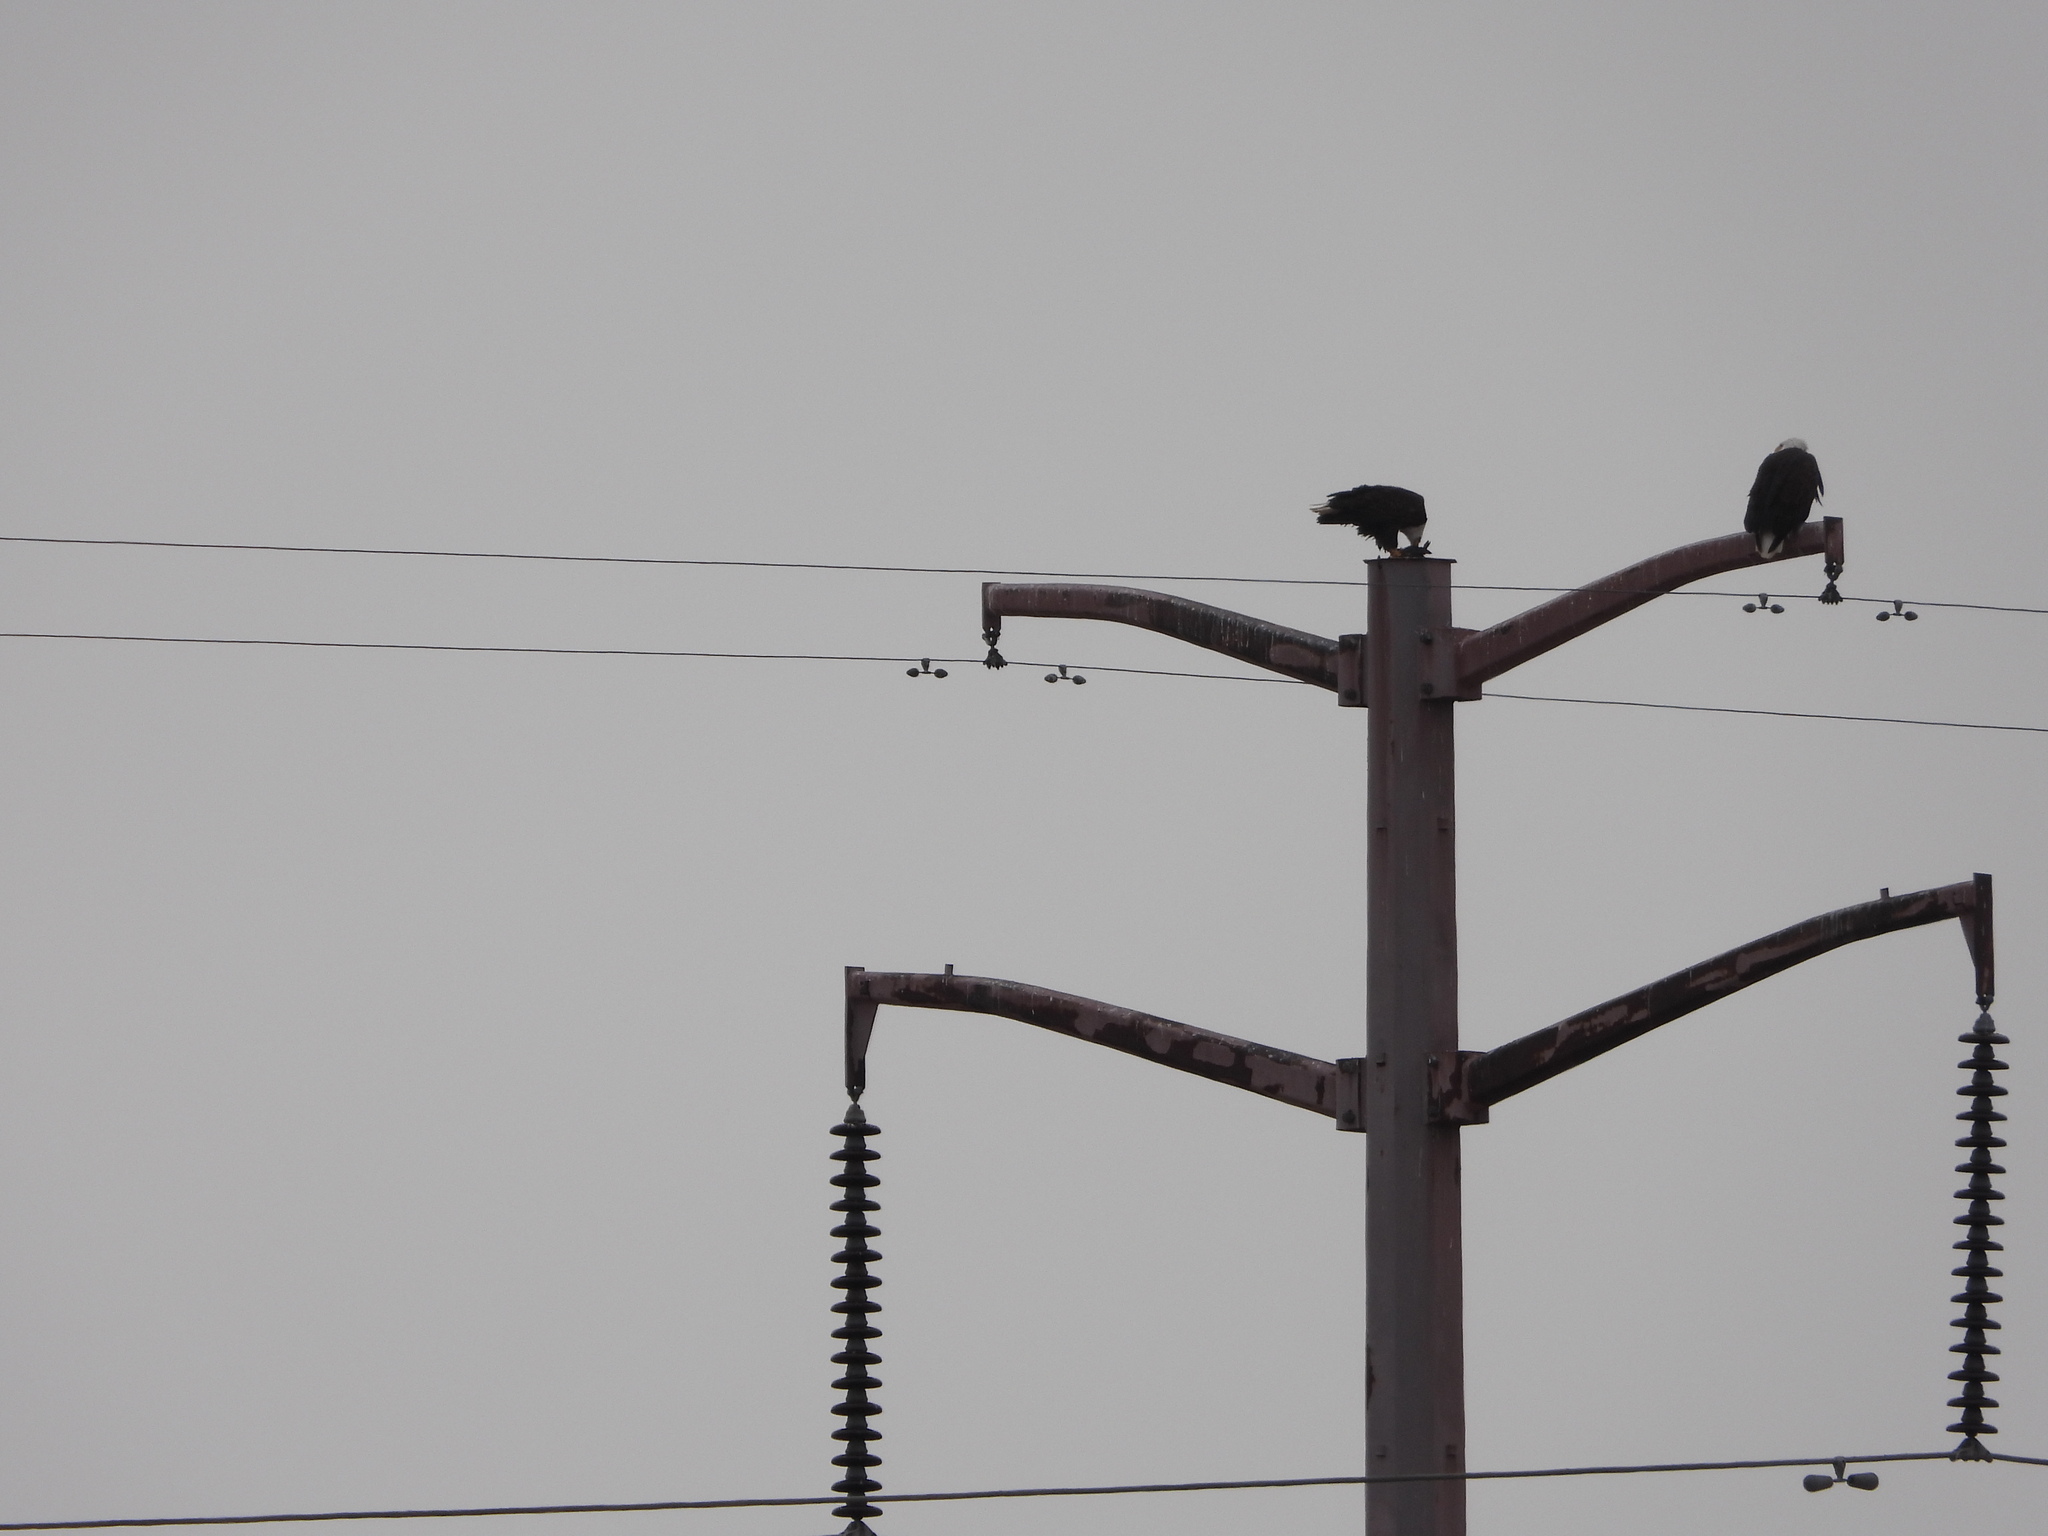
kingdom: Animalia
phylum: Chordata
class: Aves
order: Accipitriformes
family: Accipitridae
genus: Haliaeetus
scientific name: Haliaeetus leucocephalus
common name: Bald eagle
